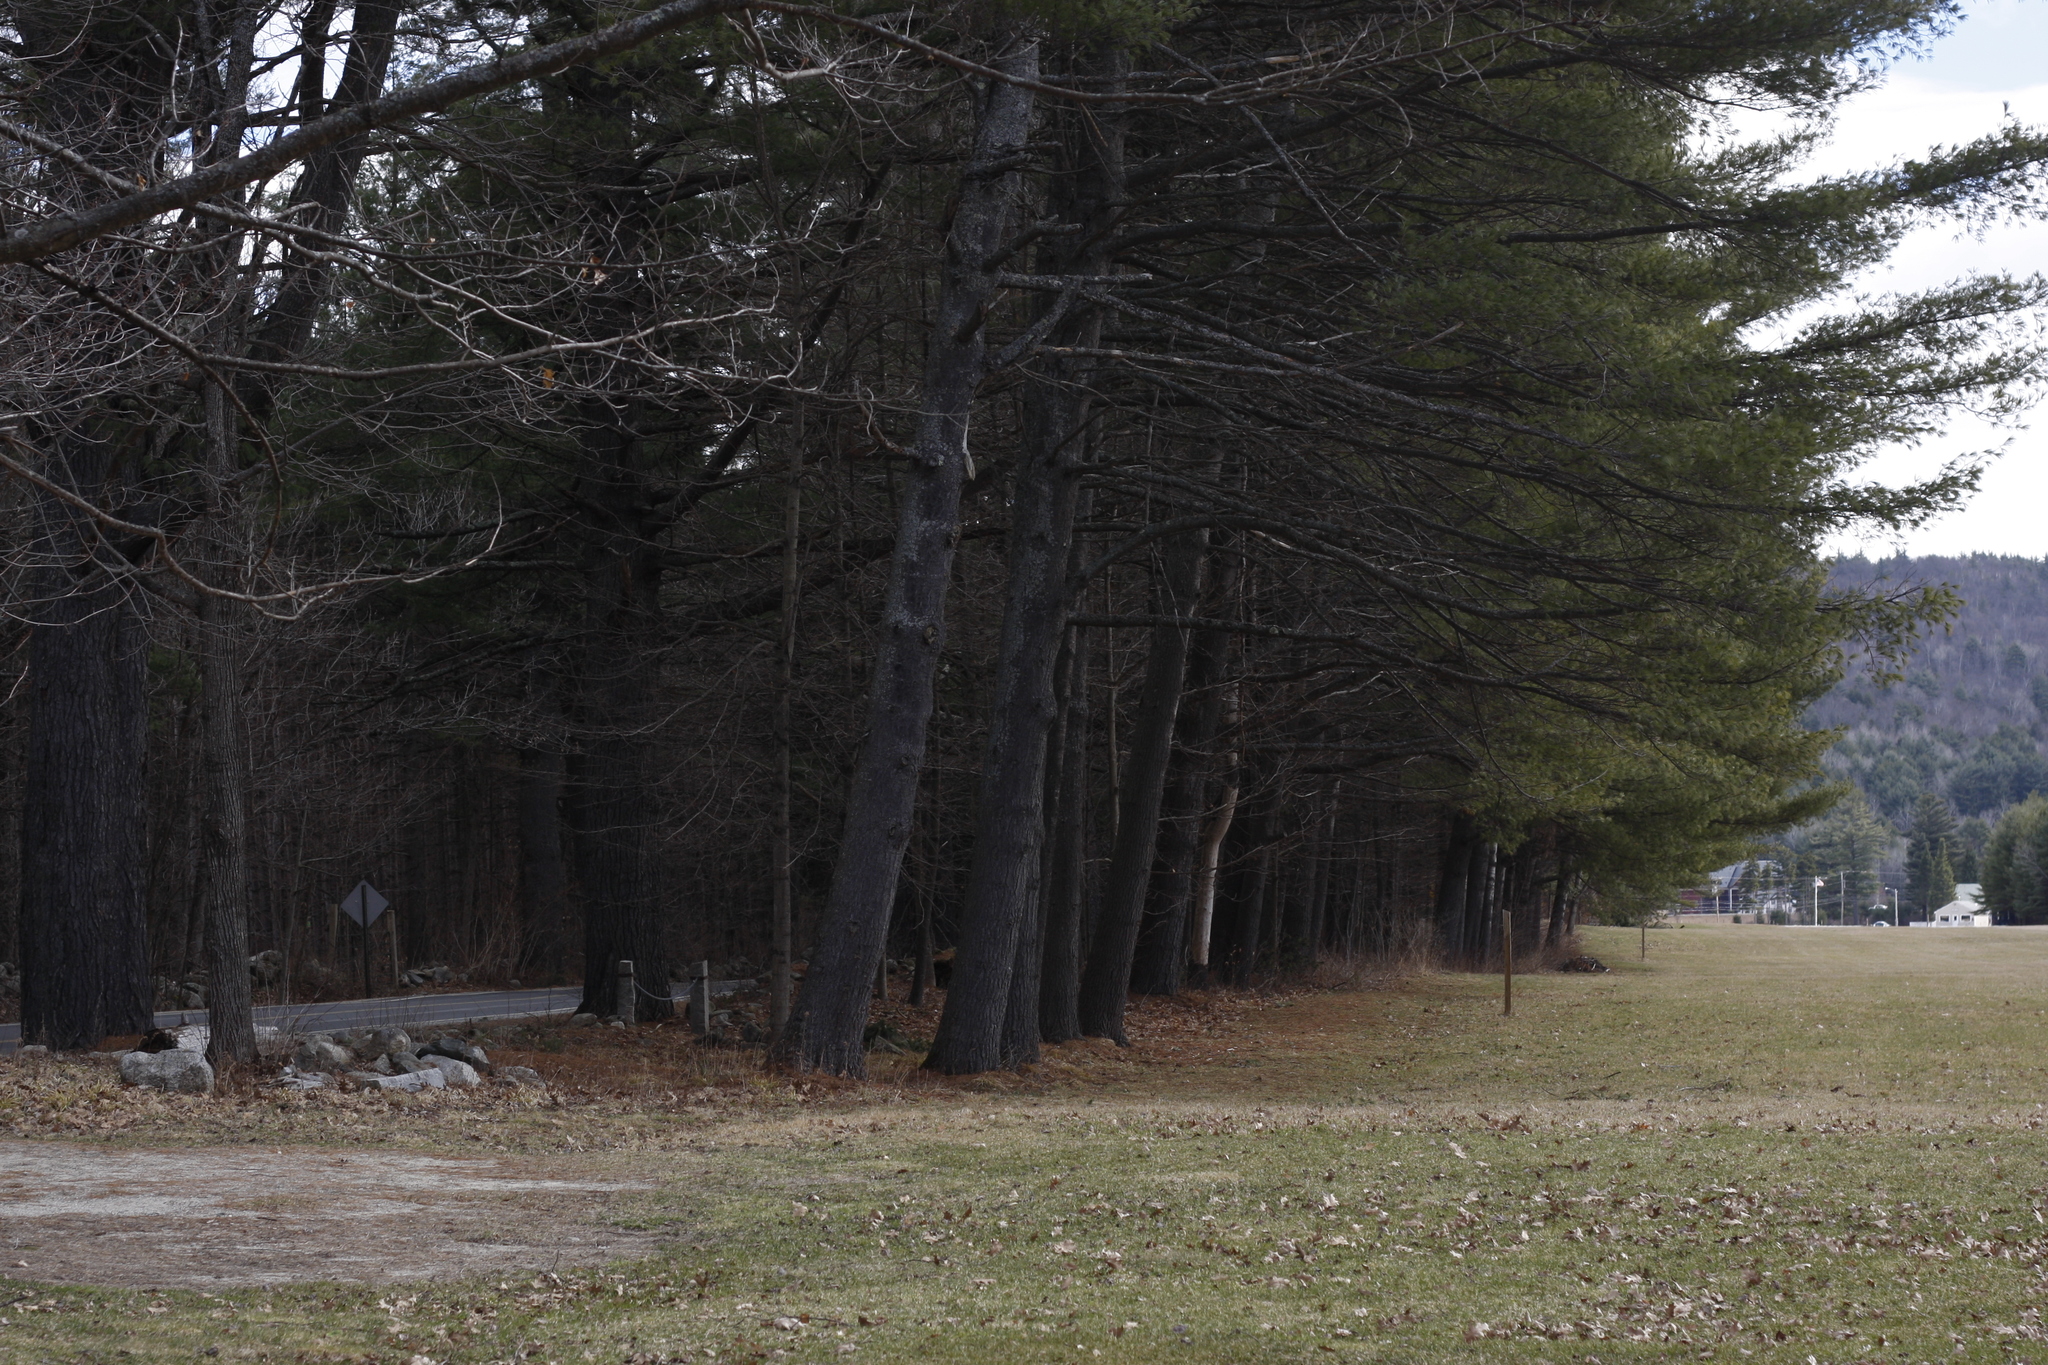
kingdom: Plantae
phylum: Tracheophyta
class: Pinopsida
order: Pinales
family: Pinaceae
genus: Pinus
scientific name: Pinus strobus
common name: Weymouth pine
